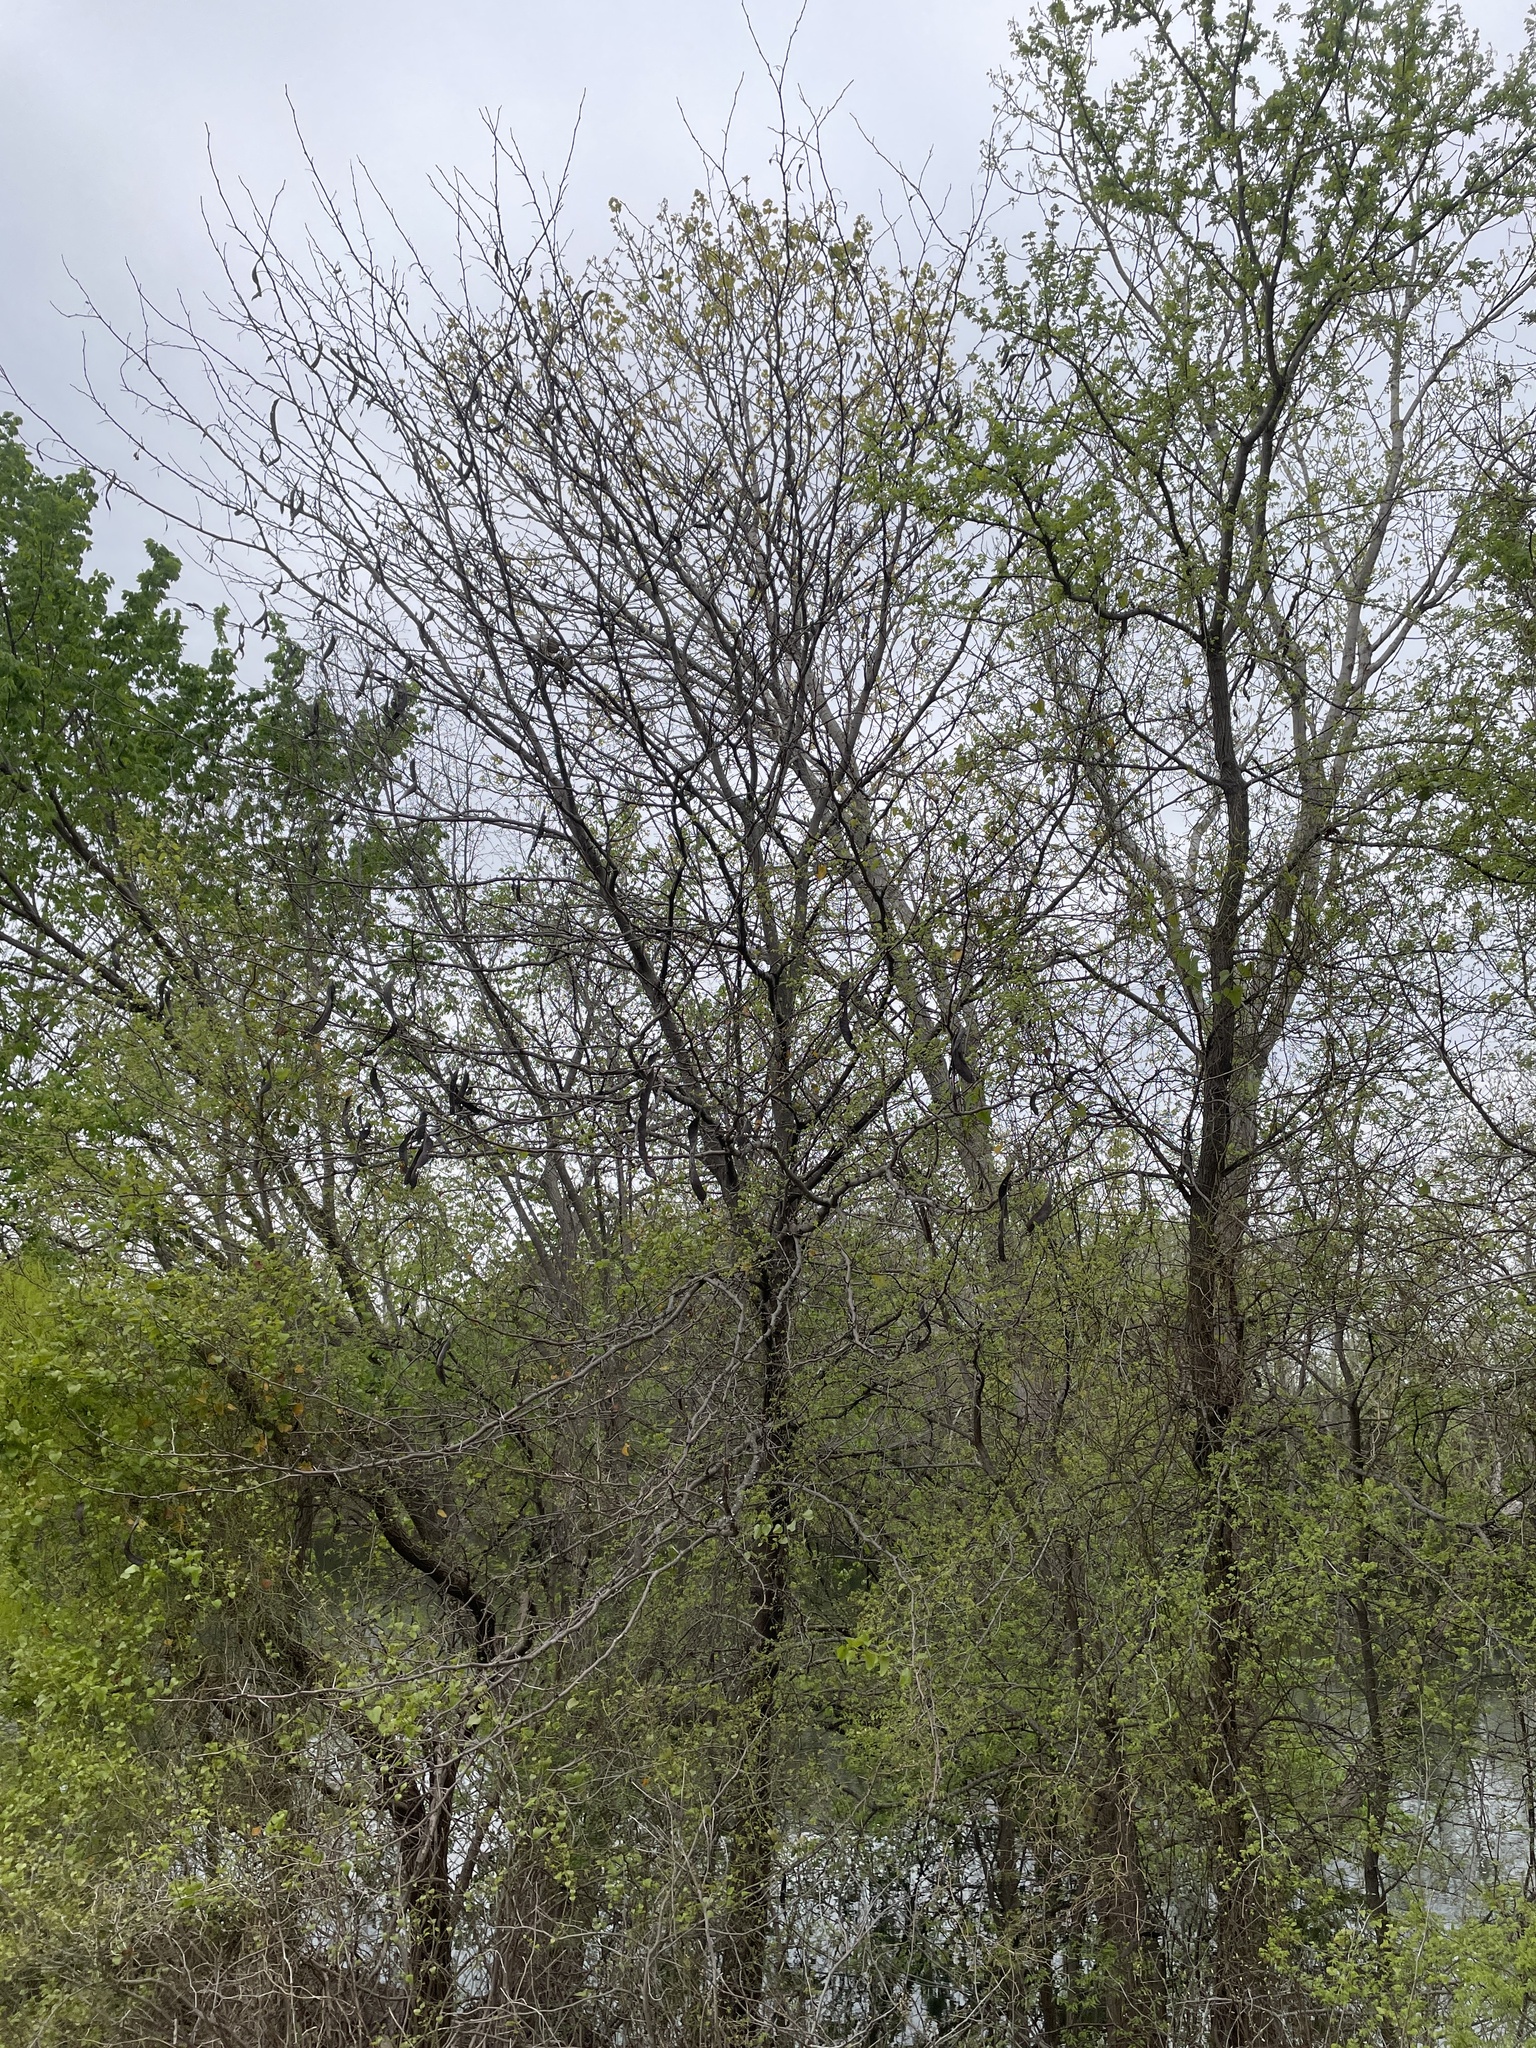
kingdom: Plantae
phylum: Tracheophyta
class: Magnoliopsida
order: Fabales
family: Fabaceae
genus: Gleditsia
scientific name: Gleditsia triacanthos
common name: Common honeylocust
